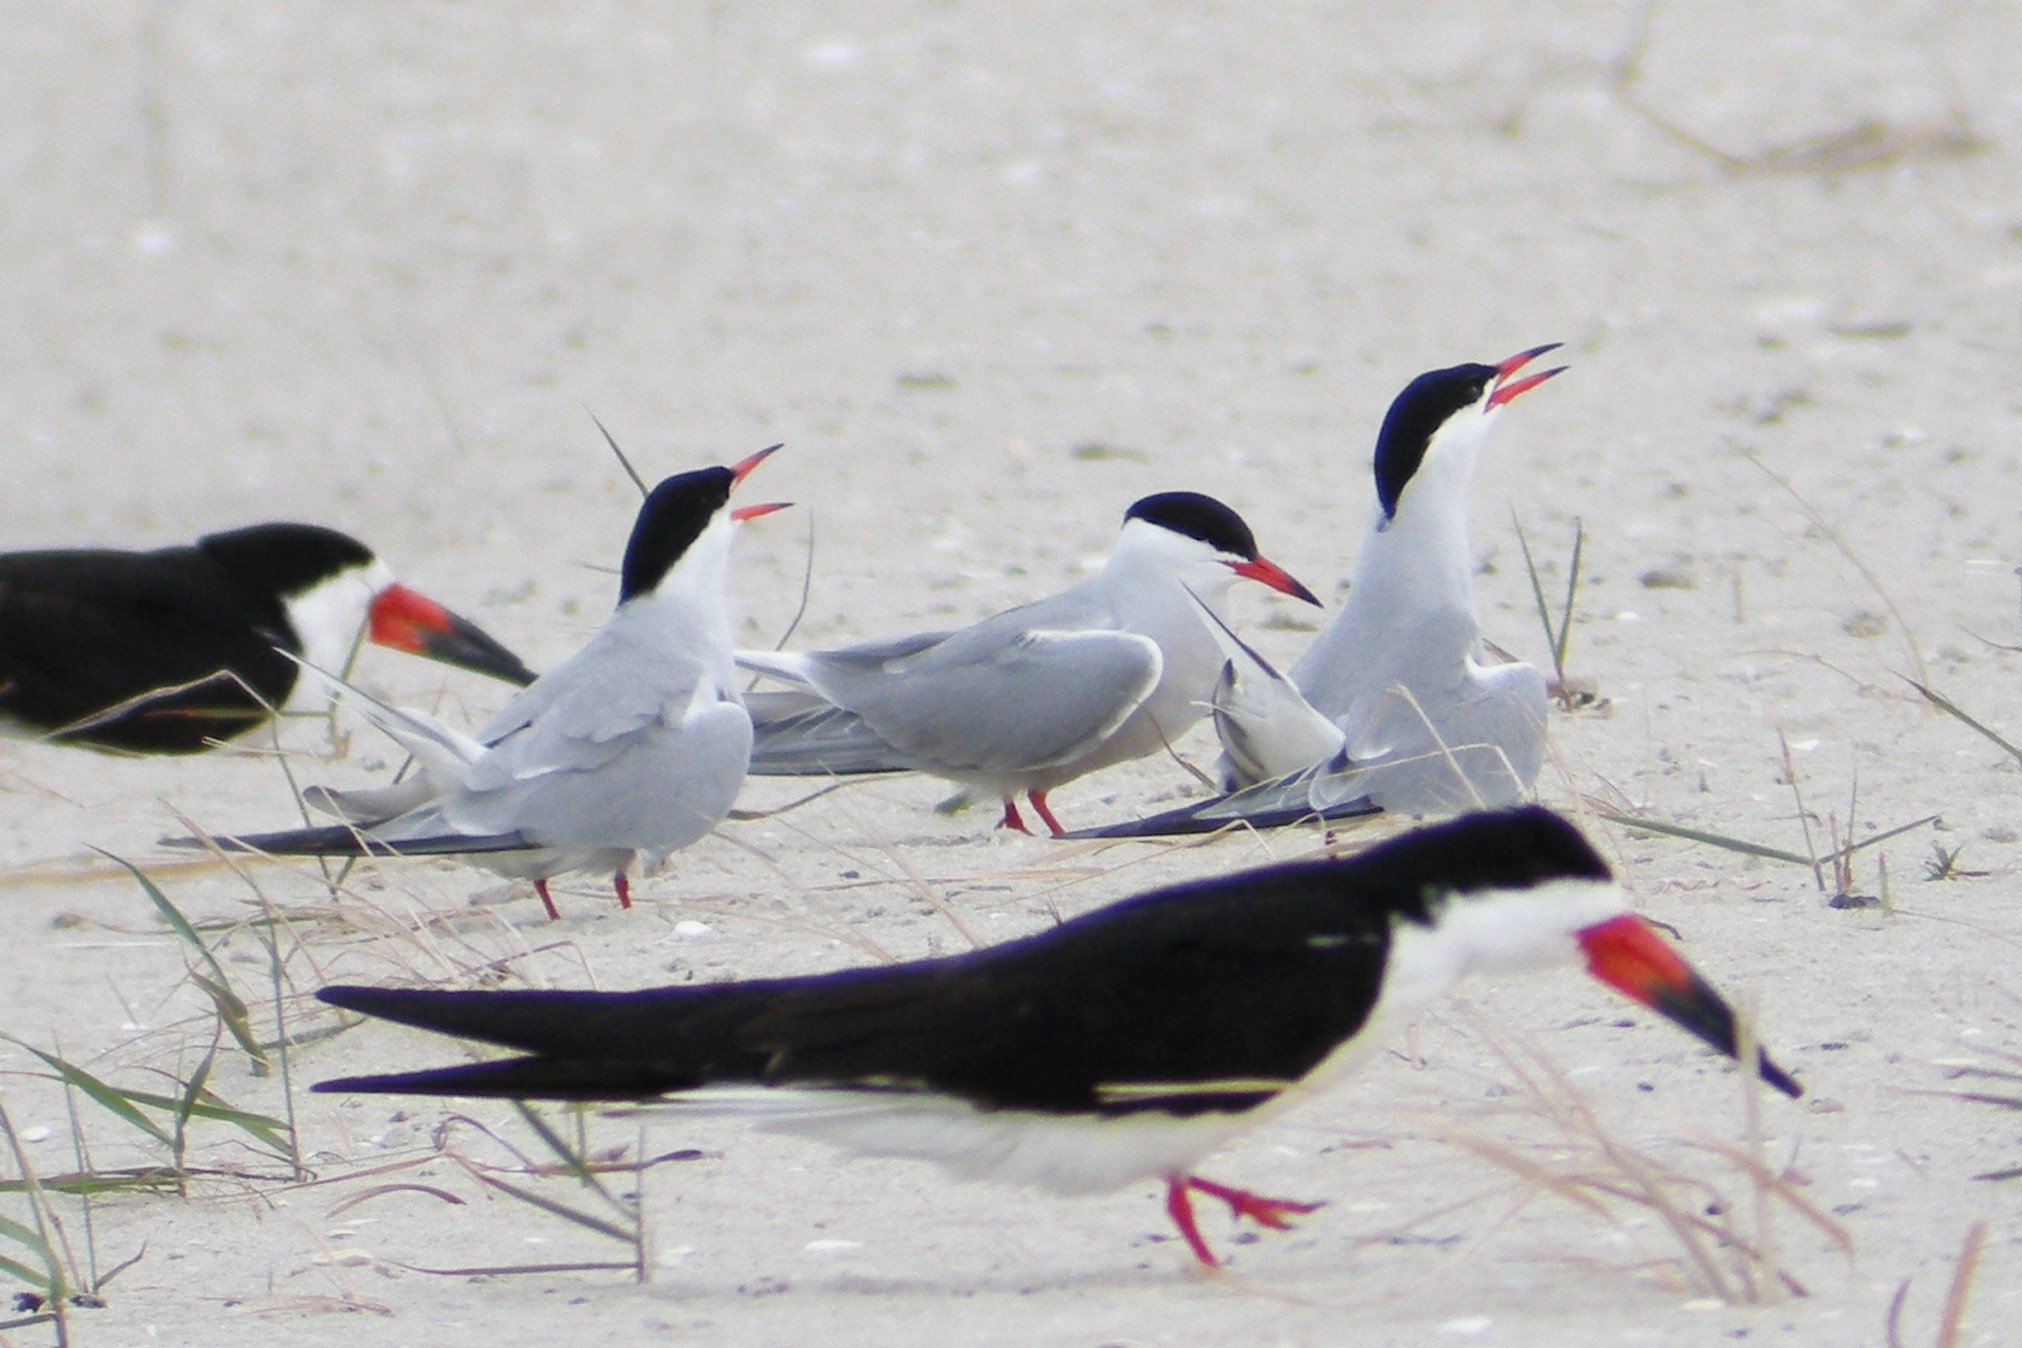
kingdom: Animalia
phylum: Chordata
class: Aves
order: Charadriiformes
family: Laridae
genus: Sterna
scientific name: Sterna hirundo
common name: Common tern
